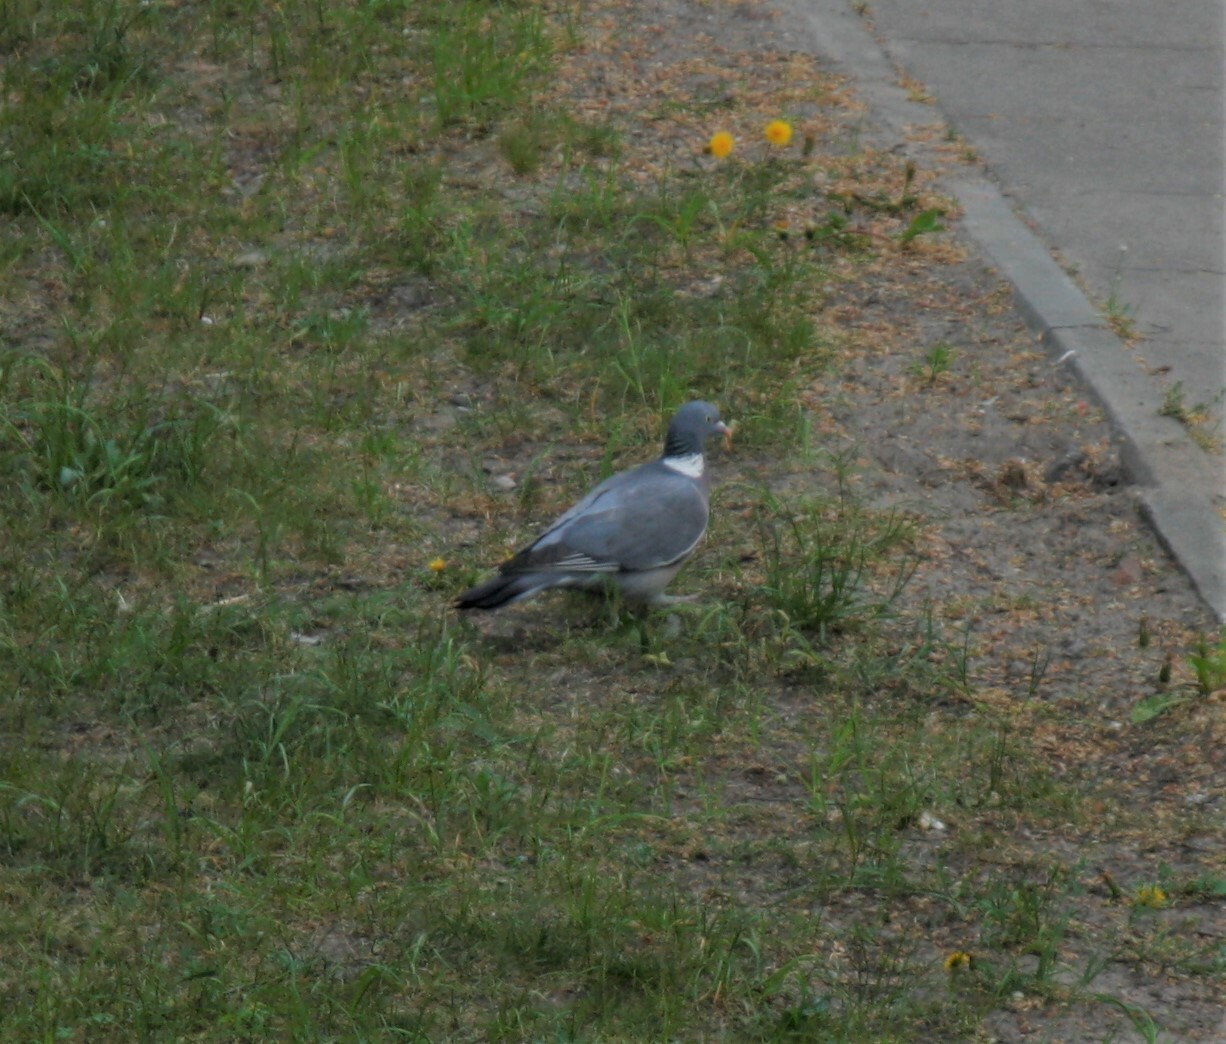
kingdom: Animalia
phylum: Chordata
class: Aves
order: Columbiformes
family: Columbidae
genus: Columba
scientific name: Columba palumbus
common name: Common wood pigeon
